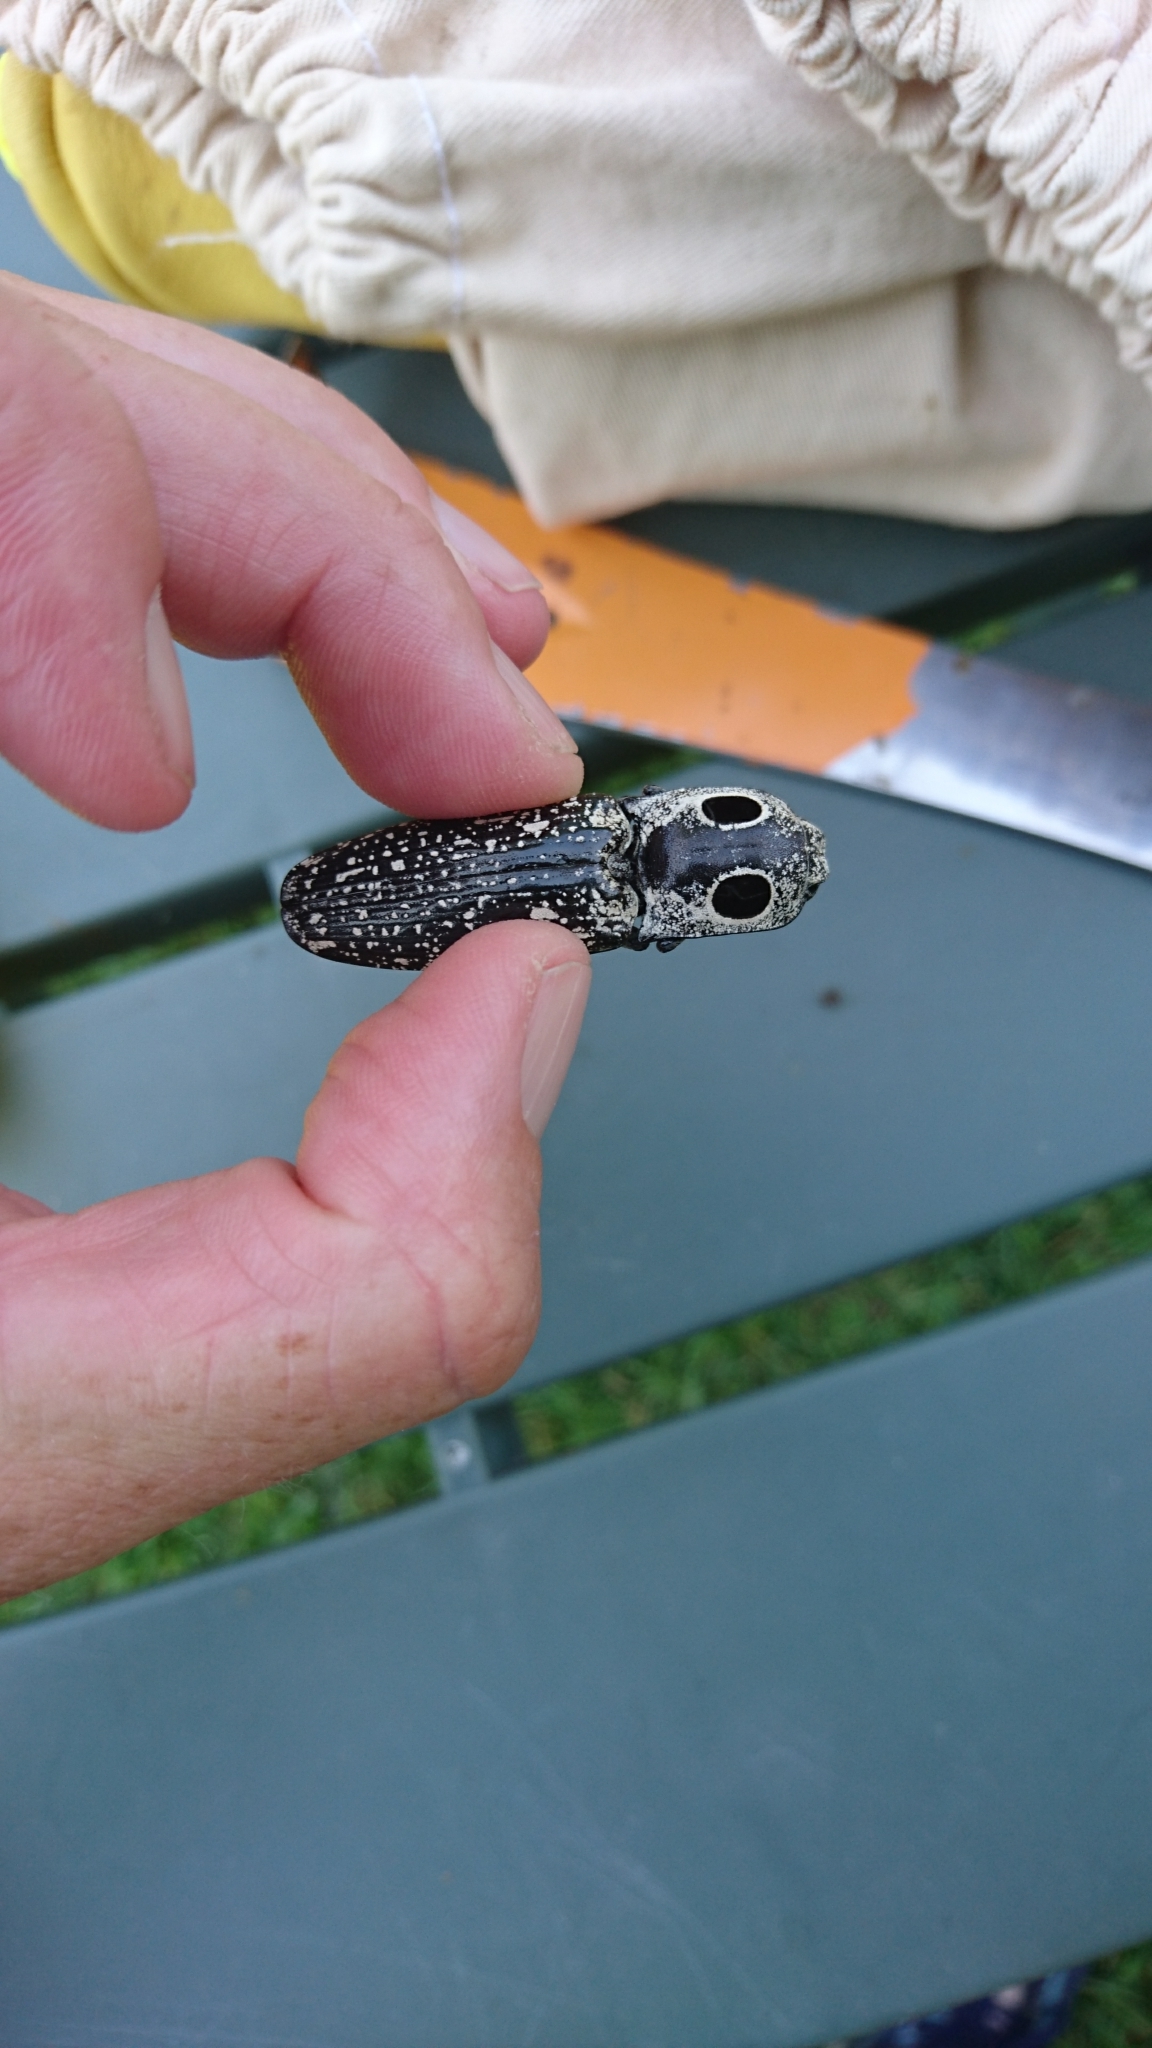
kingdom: Animalia
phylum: Arthropoda
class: Insecta
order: Coleoptera
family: Elateridae
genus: Alaus
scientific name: Alaus oculatus
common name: Eastern eyed click beetle
